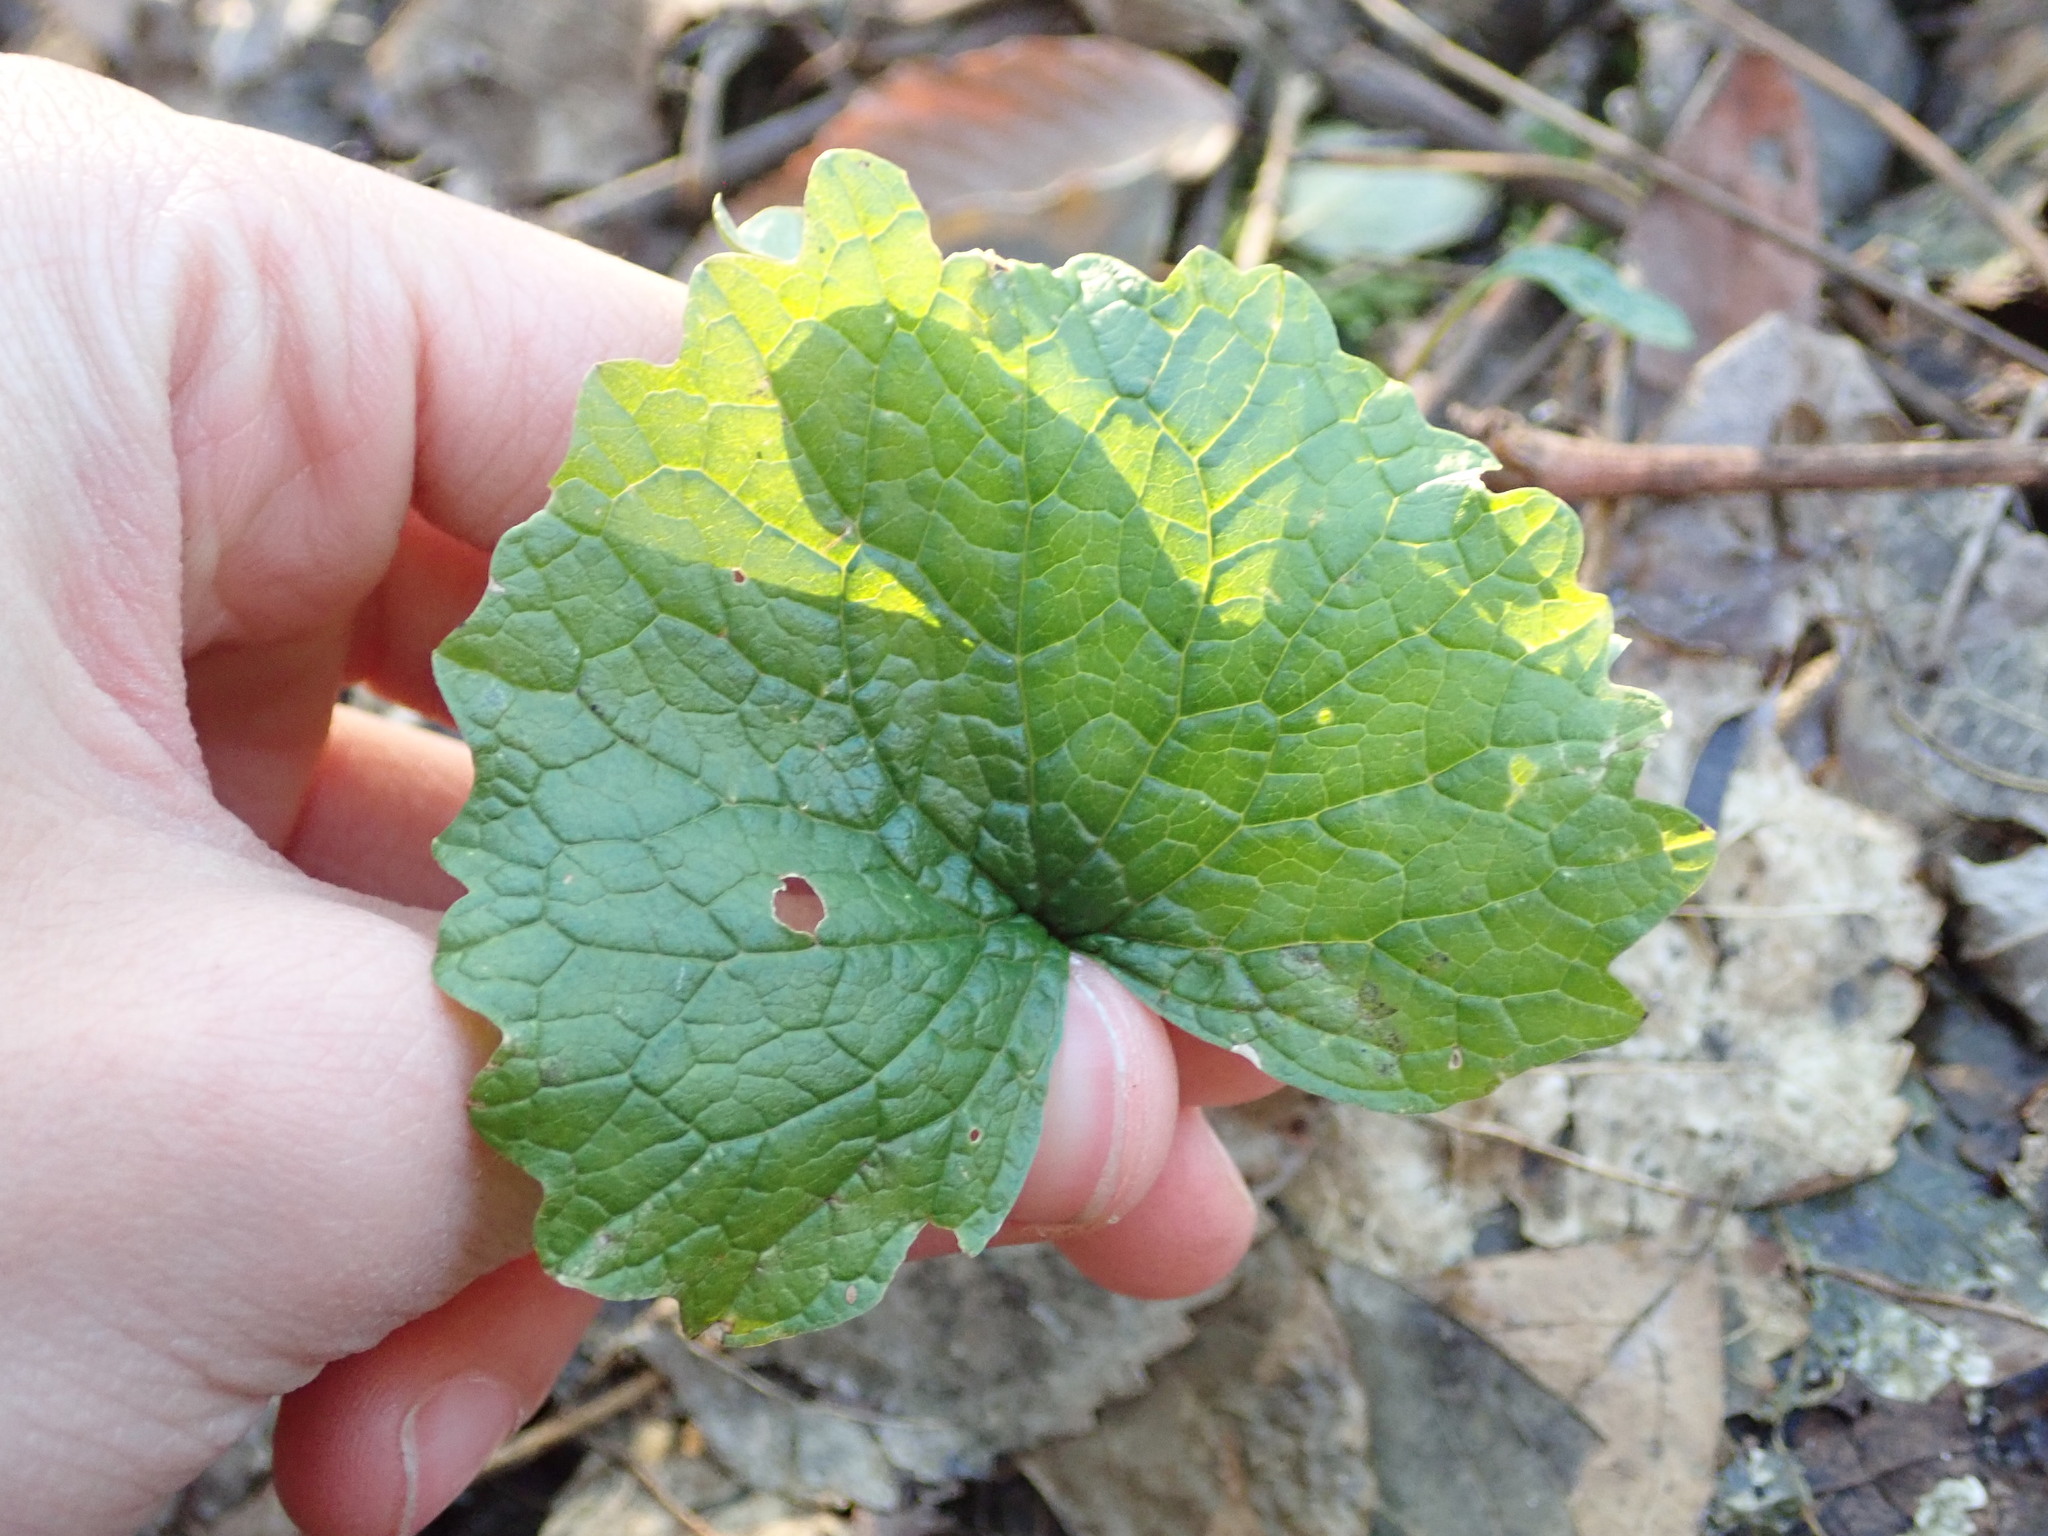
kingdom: Plantae
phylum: Tracheophyta
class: Magnoliopsida
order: Brassicales
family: Brassicaceae
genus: Alliaria
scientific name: Alliaria petiolata
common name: Garlic mustard
